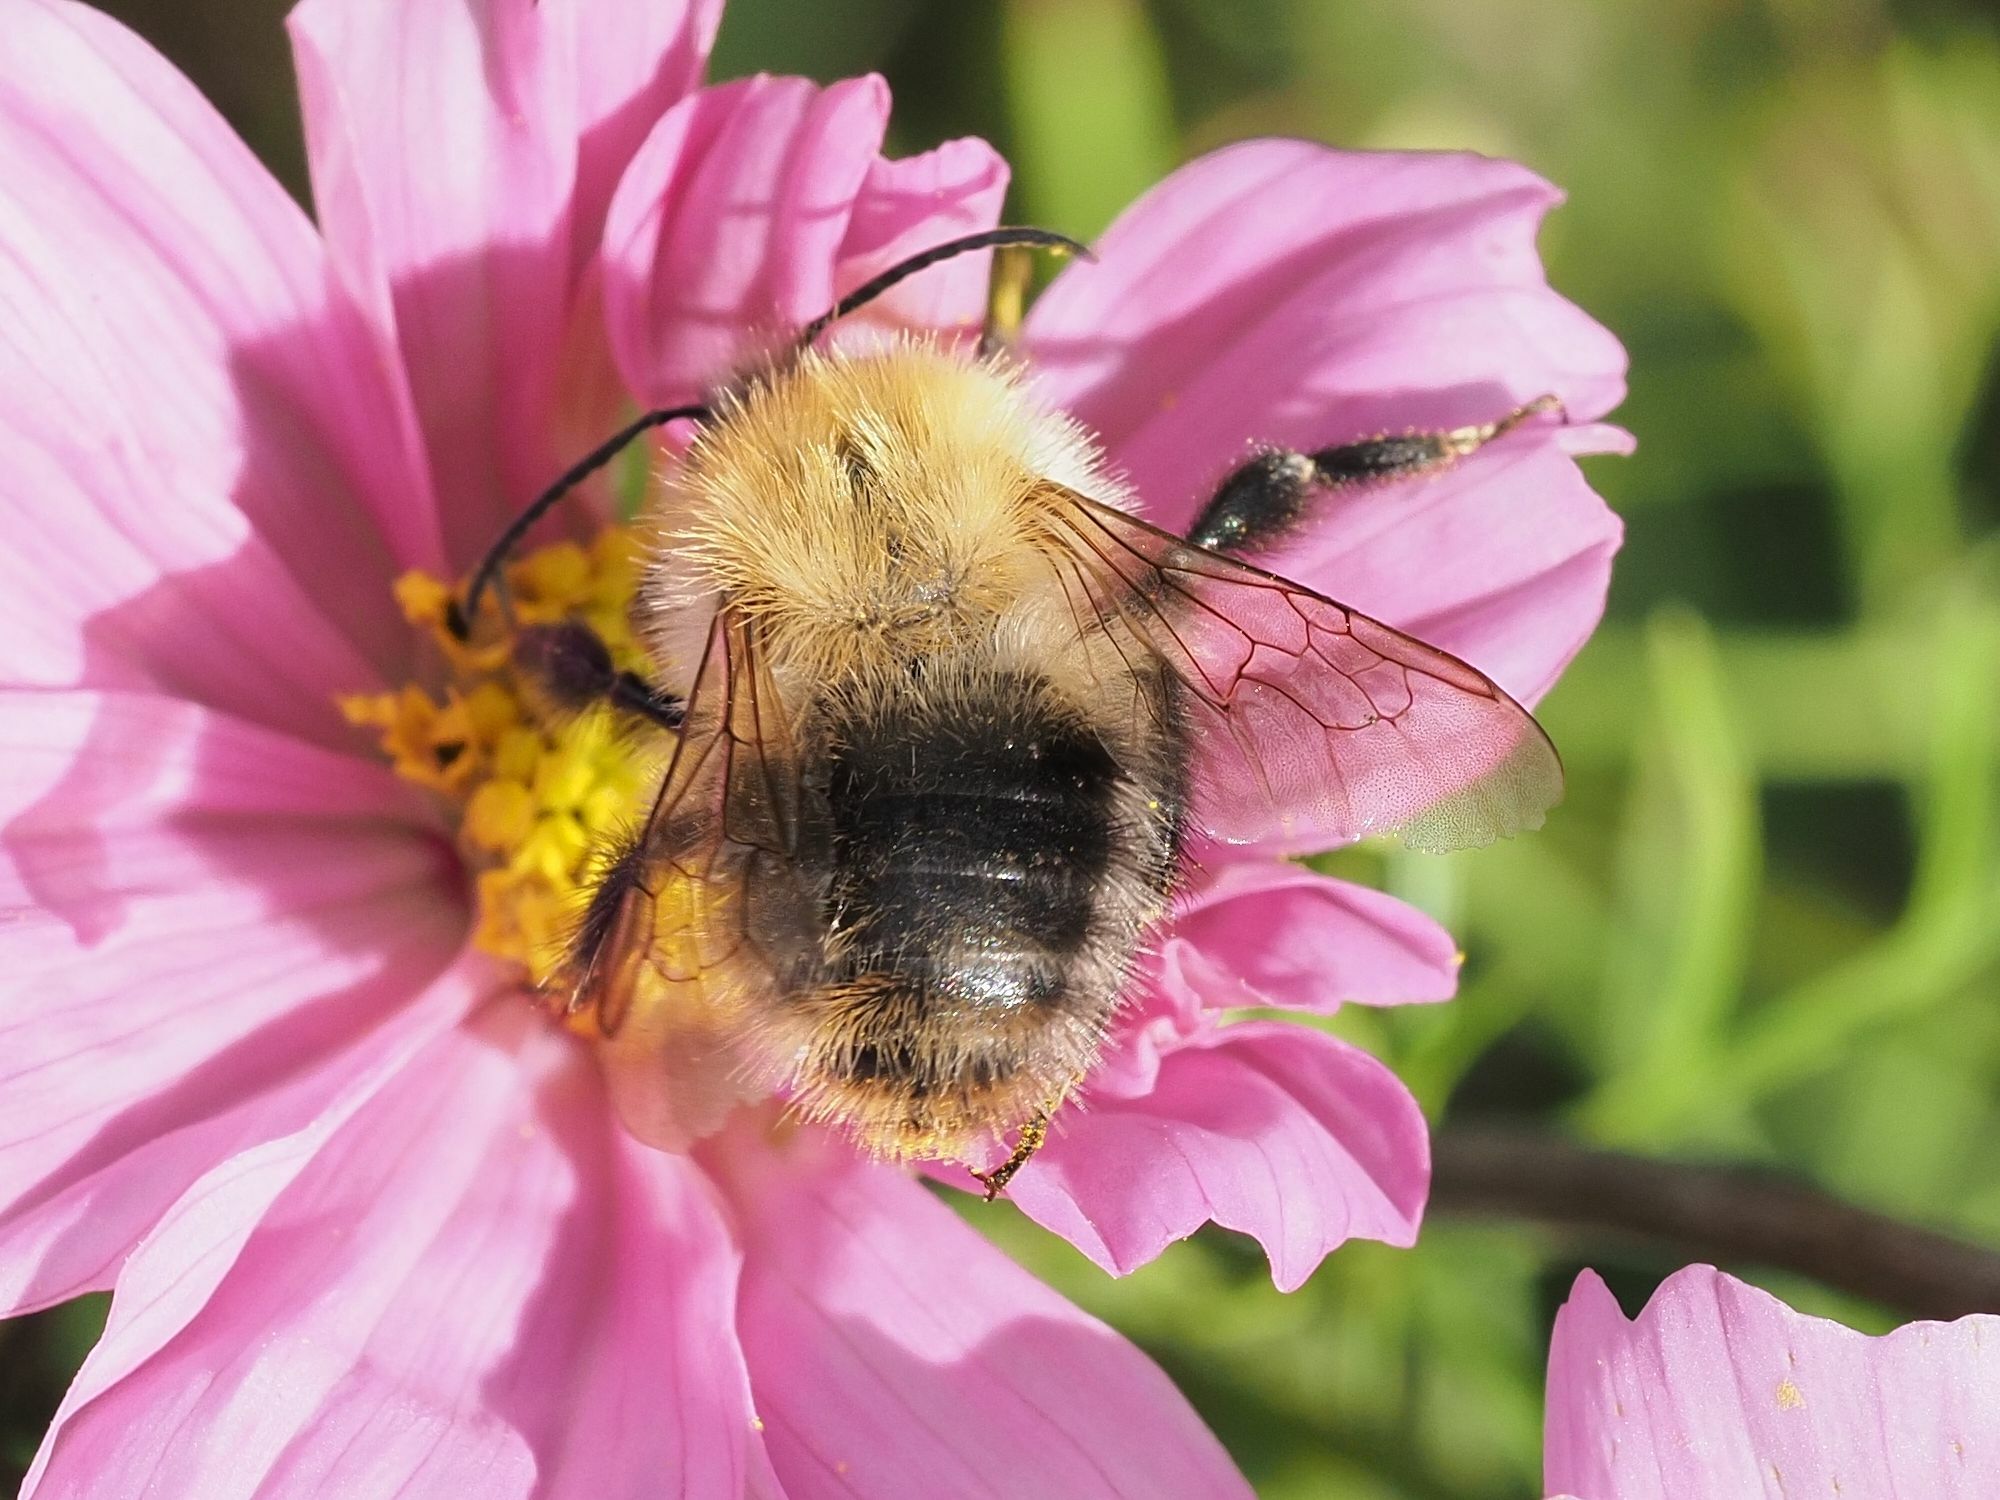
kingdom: Animalia
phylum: Arthropoda
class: Insecta
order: Hymenoptera
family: Apidae
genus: Bombus
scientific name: Bombus pascuorum
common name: Common carder bee
